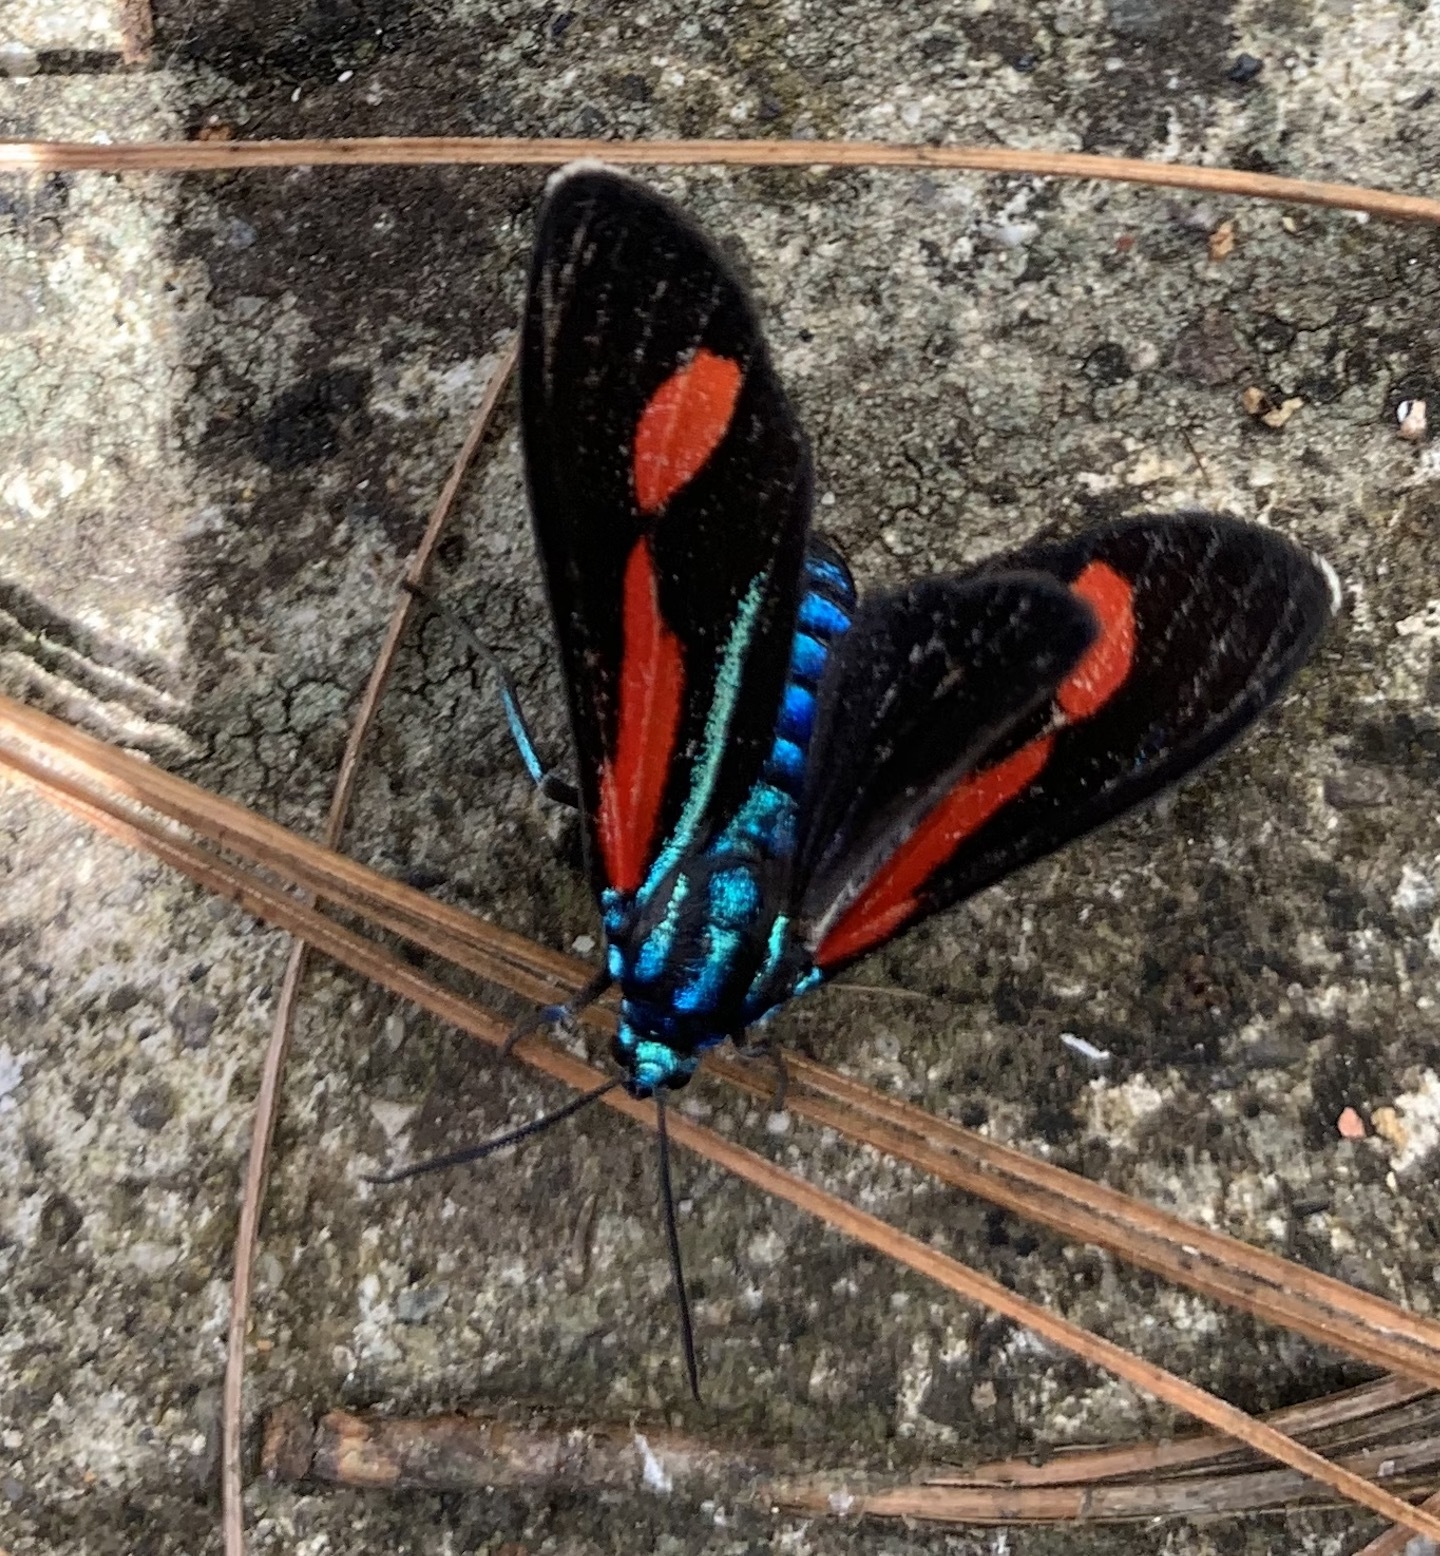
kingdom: Animalia
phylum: Arthropoda
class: Insecta
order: Lepidoptera
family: Erebidae
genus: Cyanopepla
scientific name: Cyanopepla bella
